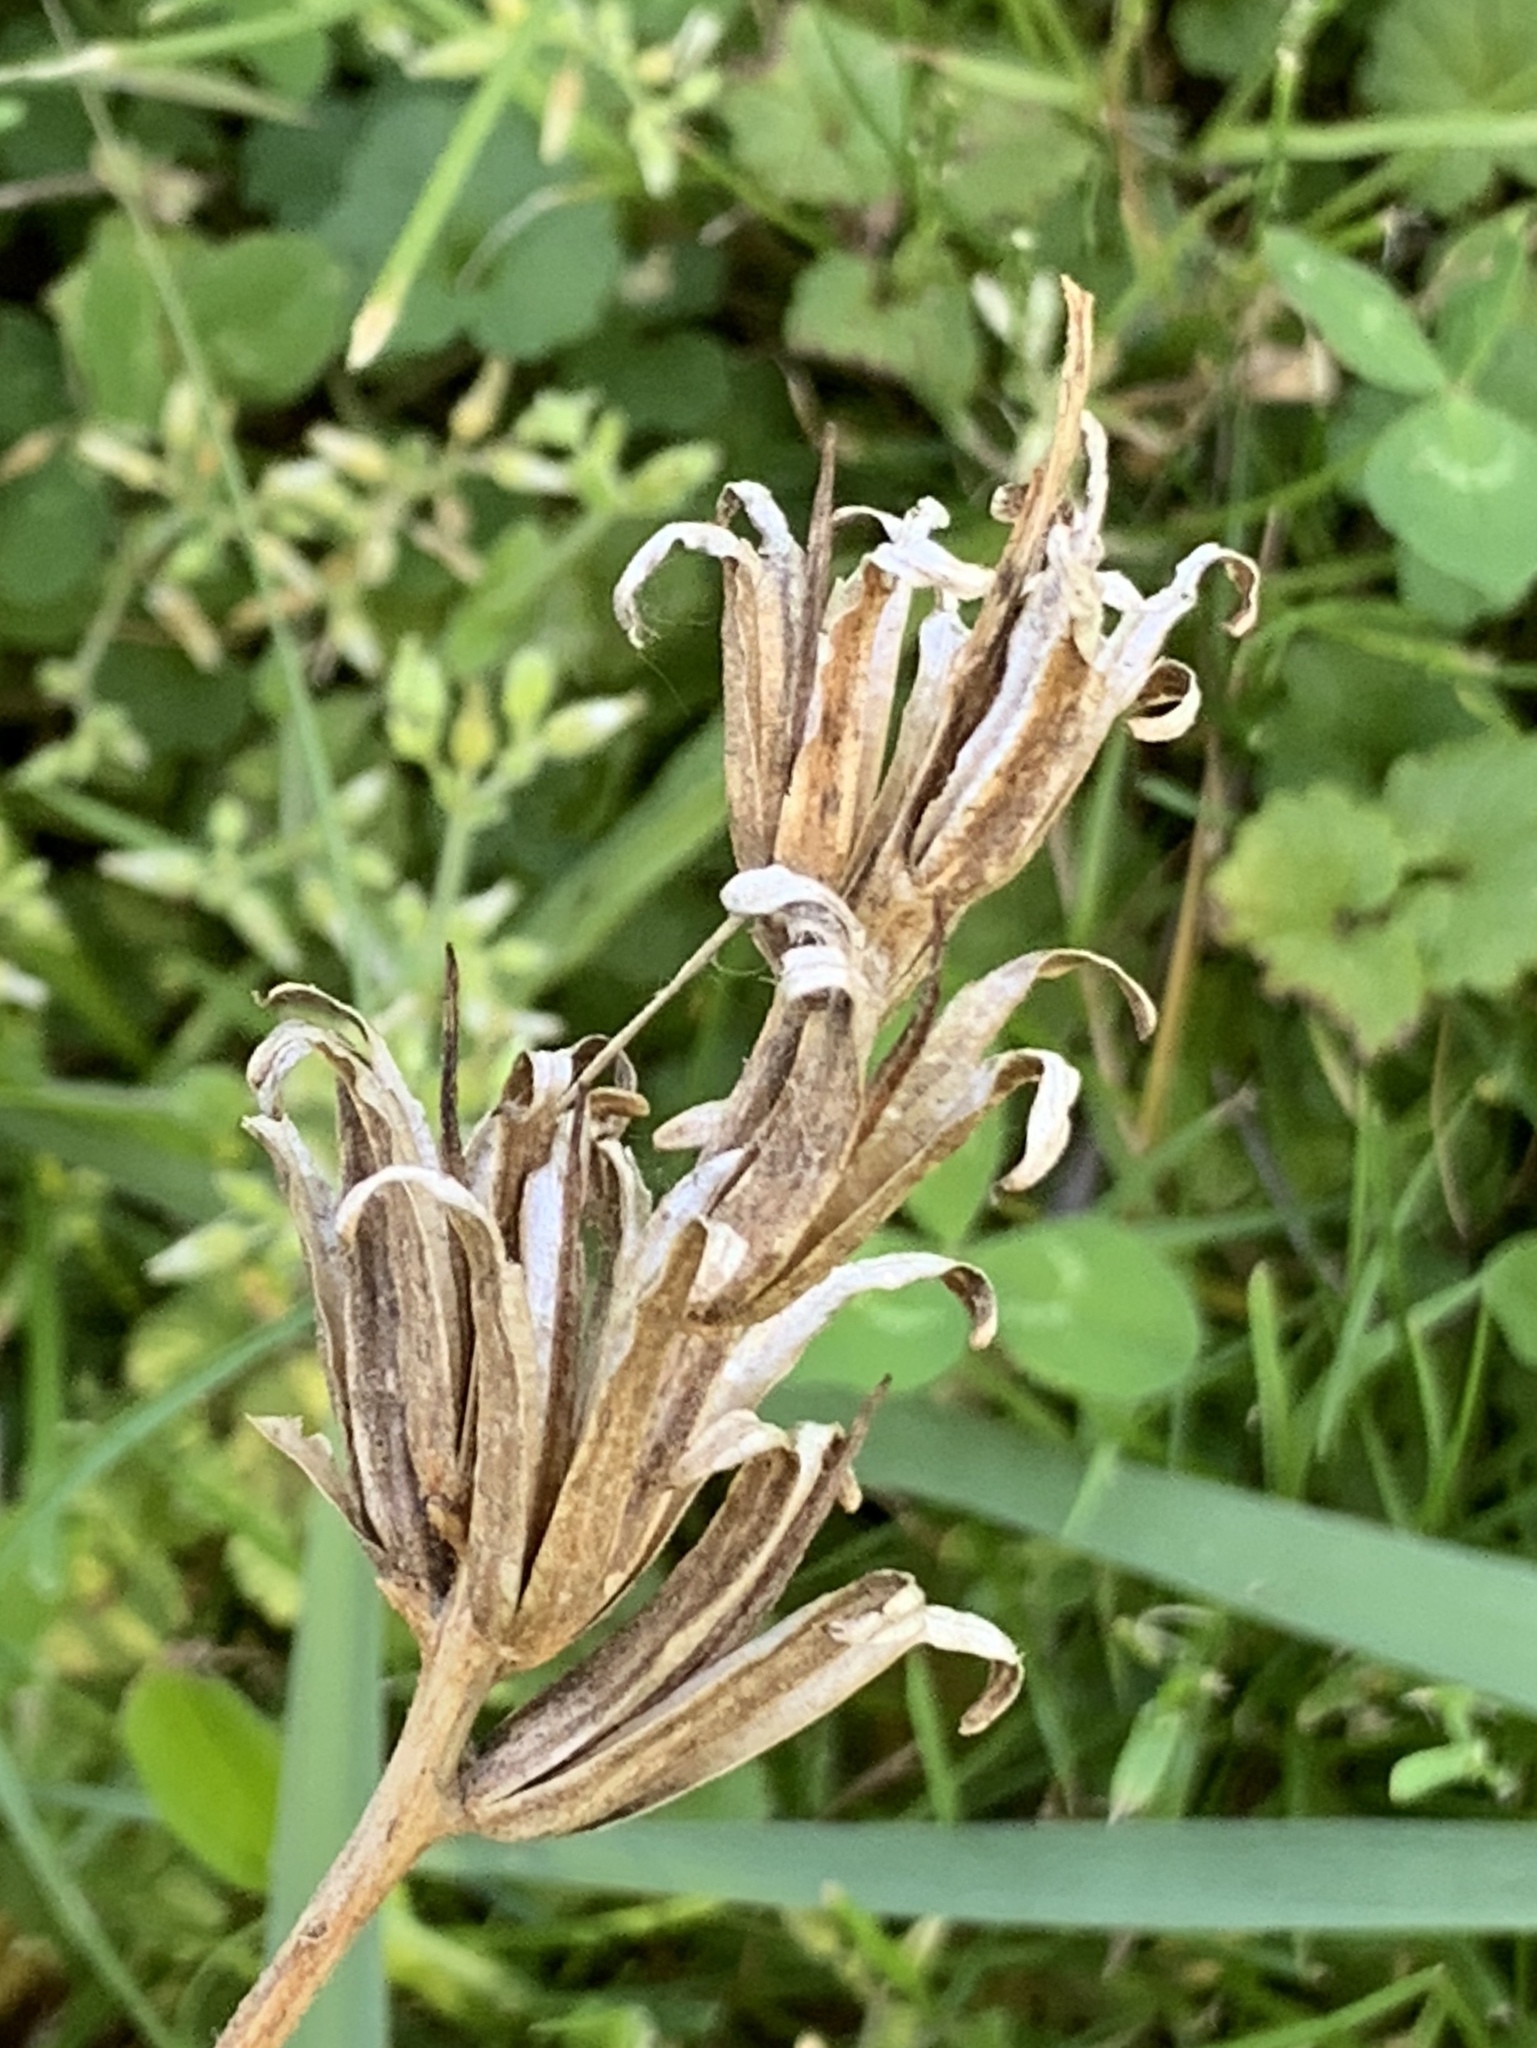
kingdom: Plantae
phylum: Tracheophyta
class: Magnoliopsida
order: Myrtales
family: Onagraceae
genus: Oenothera
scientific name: Oenothera biennis
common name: Common evening-primrose
